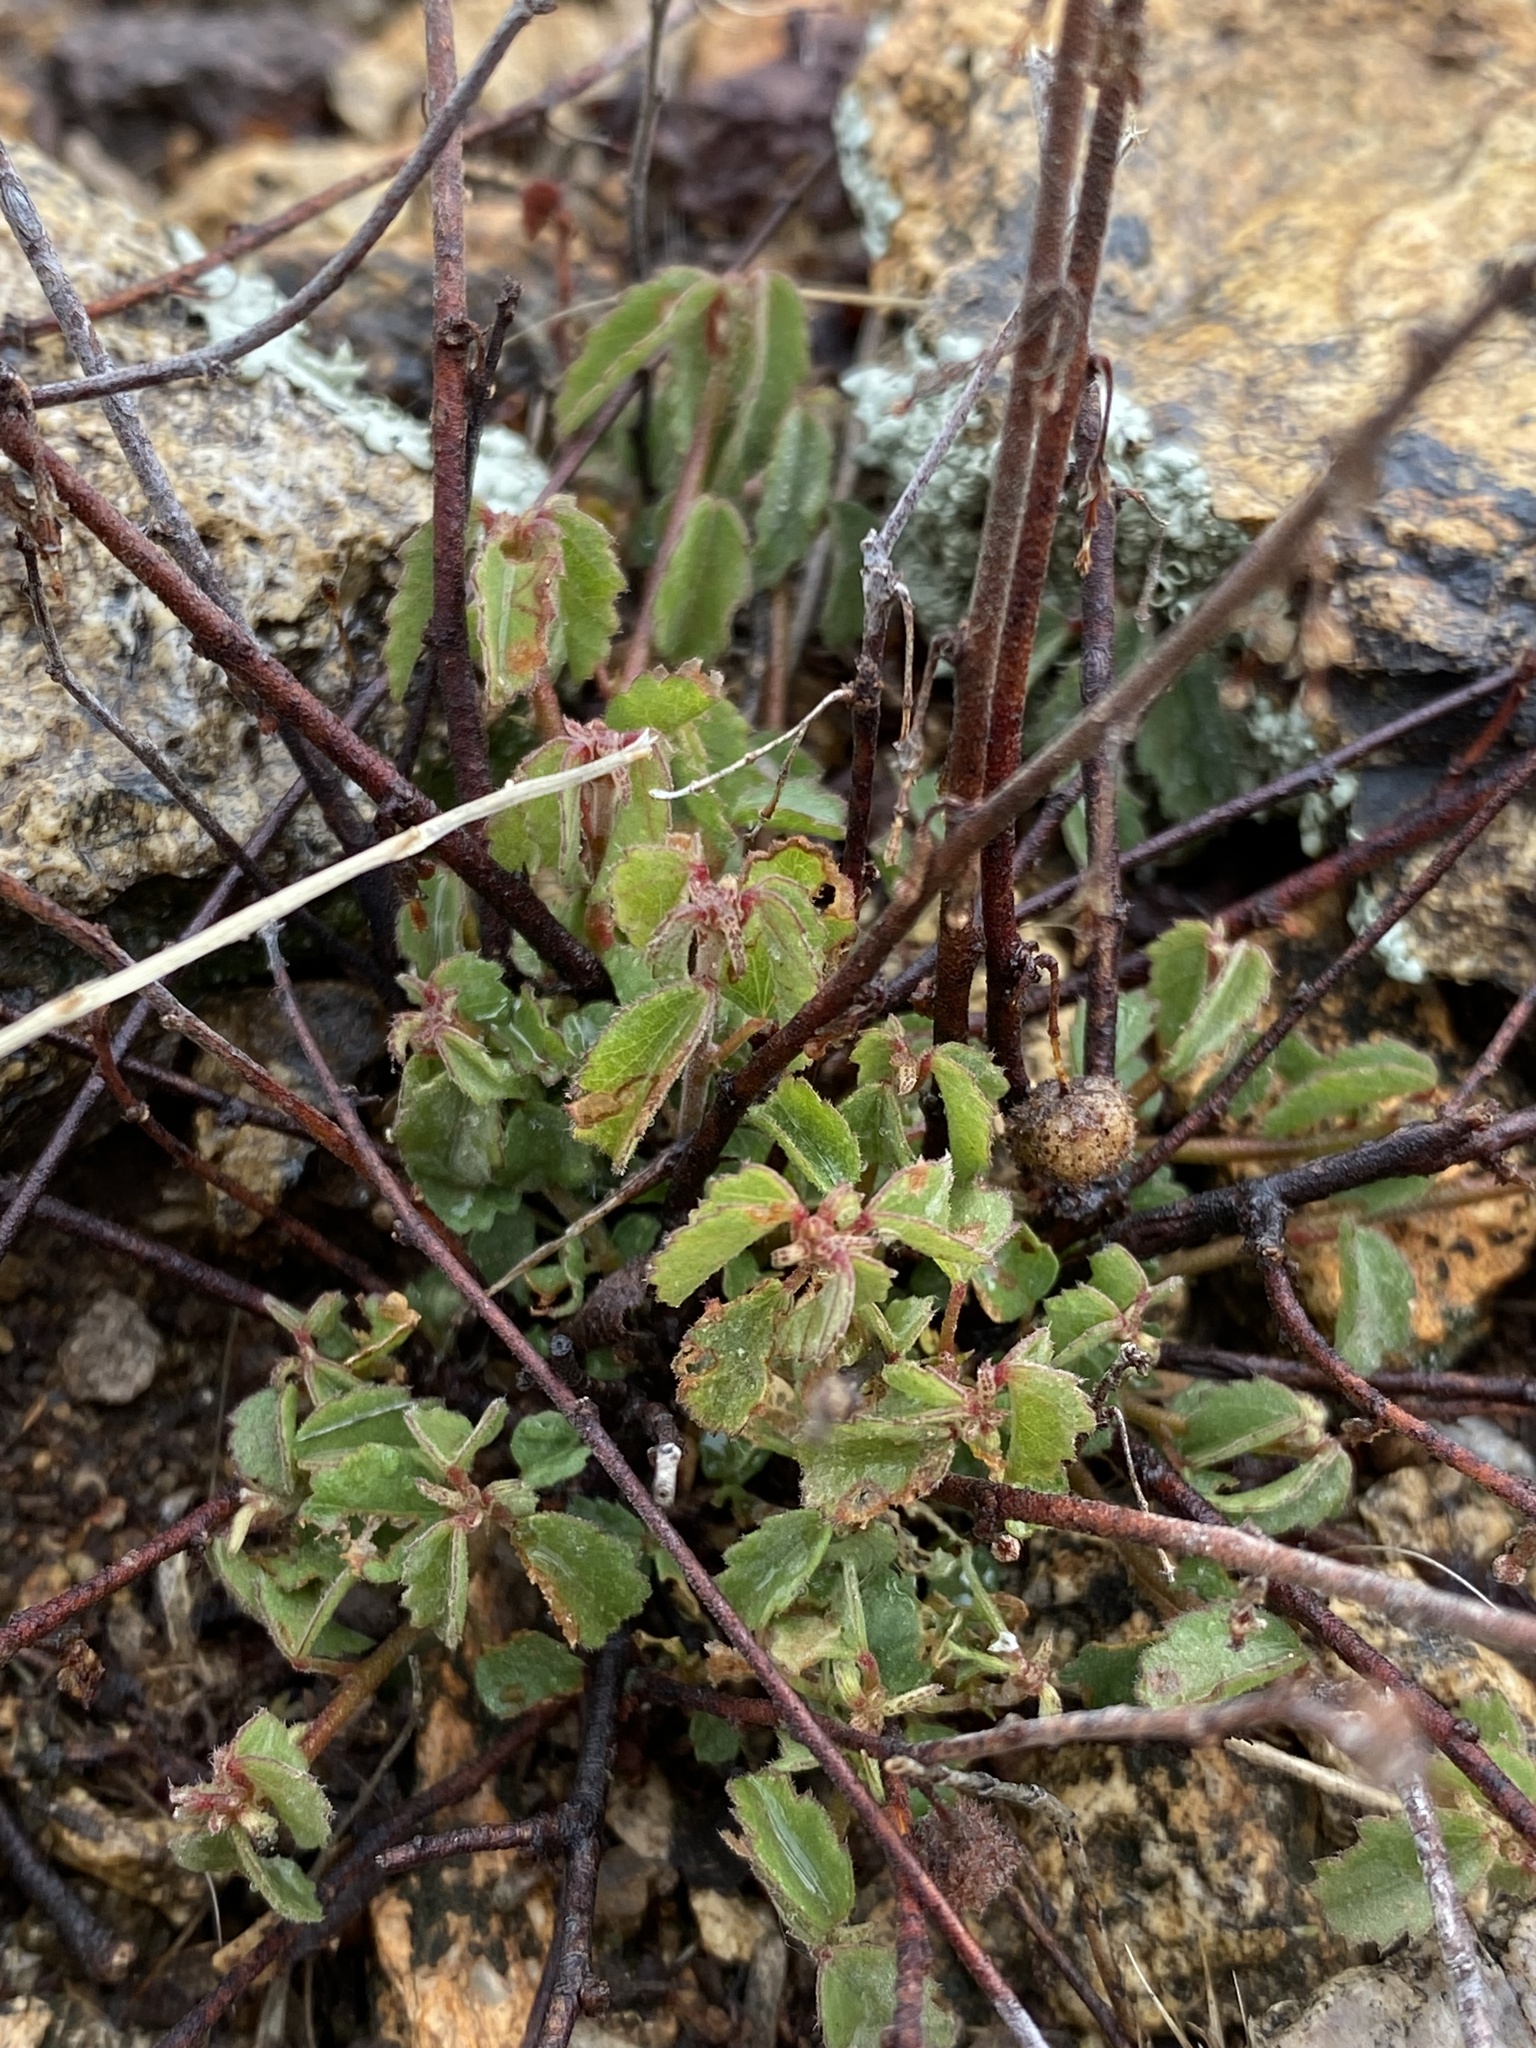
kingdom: Plantae
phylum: Tracheophyta
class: Magnoliopsida
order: Malvales
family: Malvaceae
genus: Ayenia
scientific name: Ayenia filiformis
